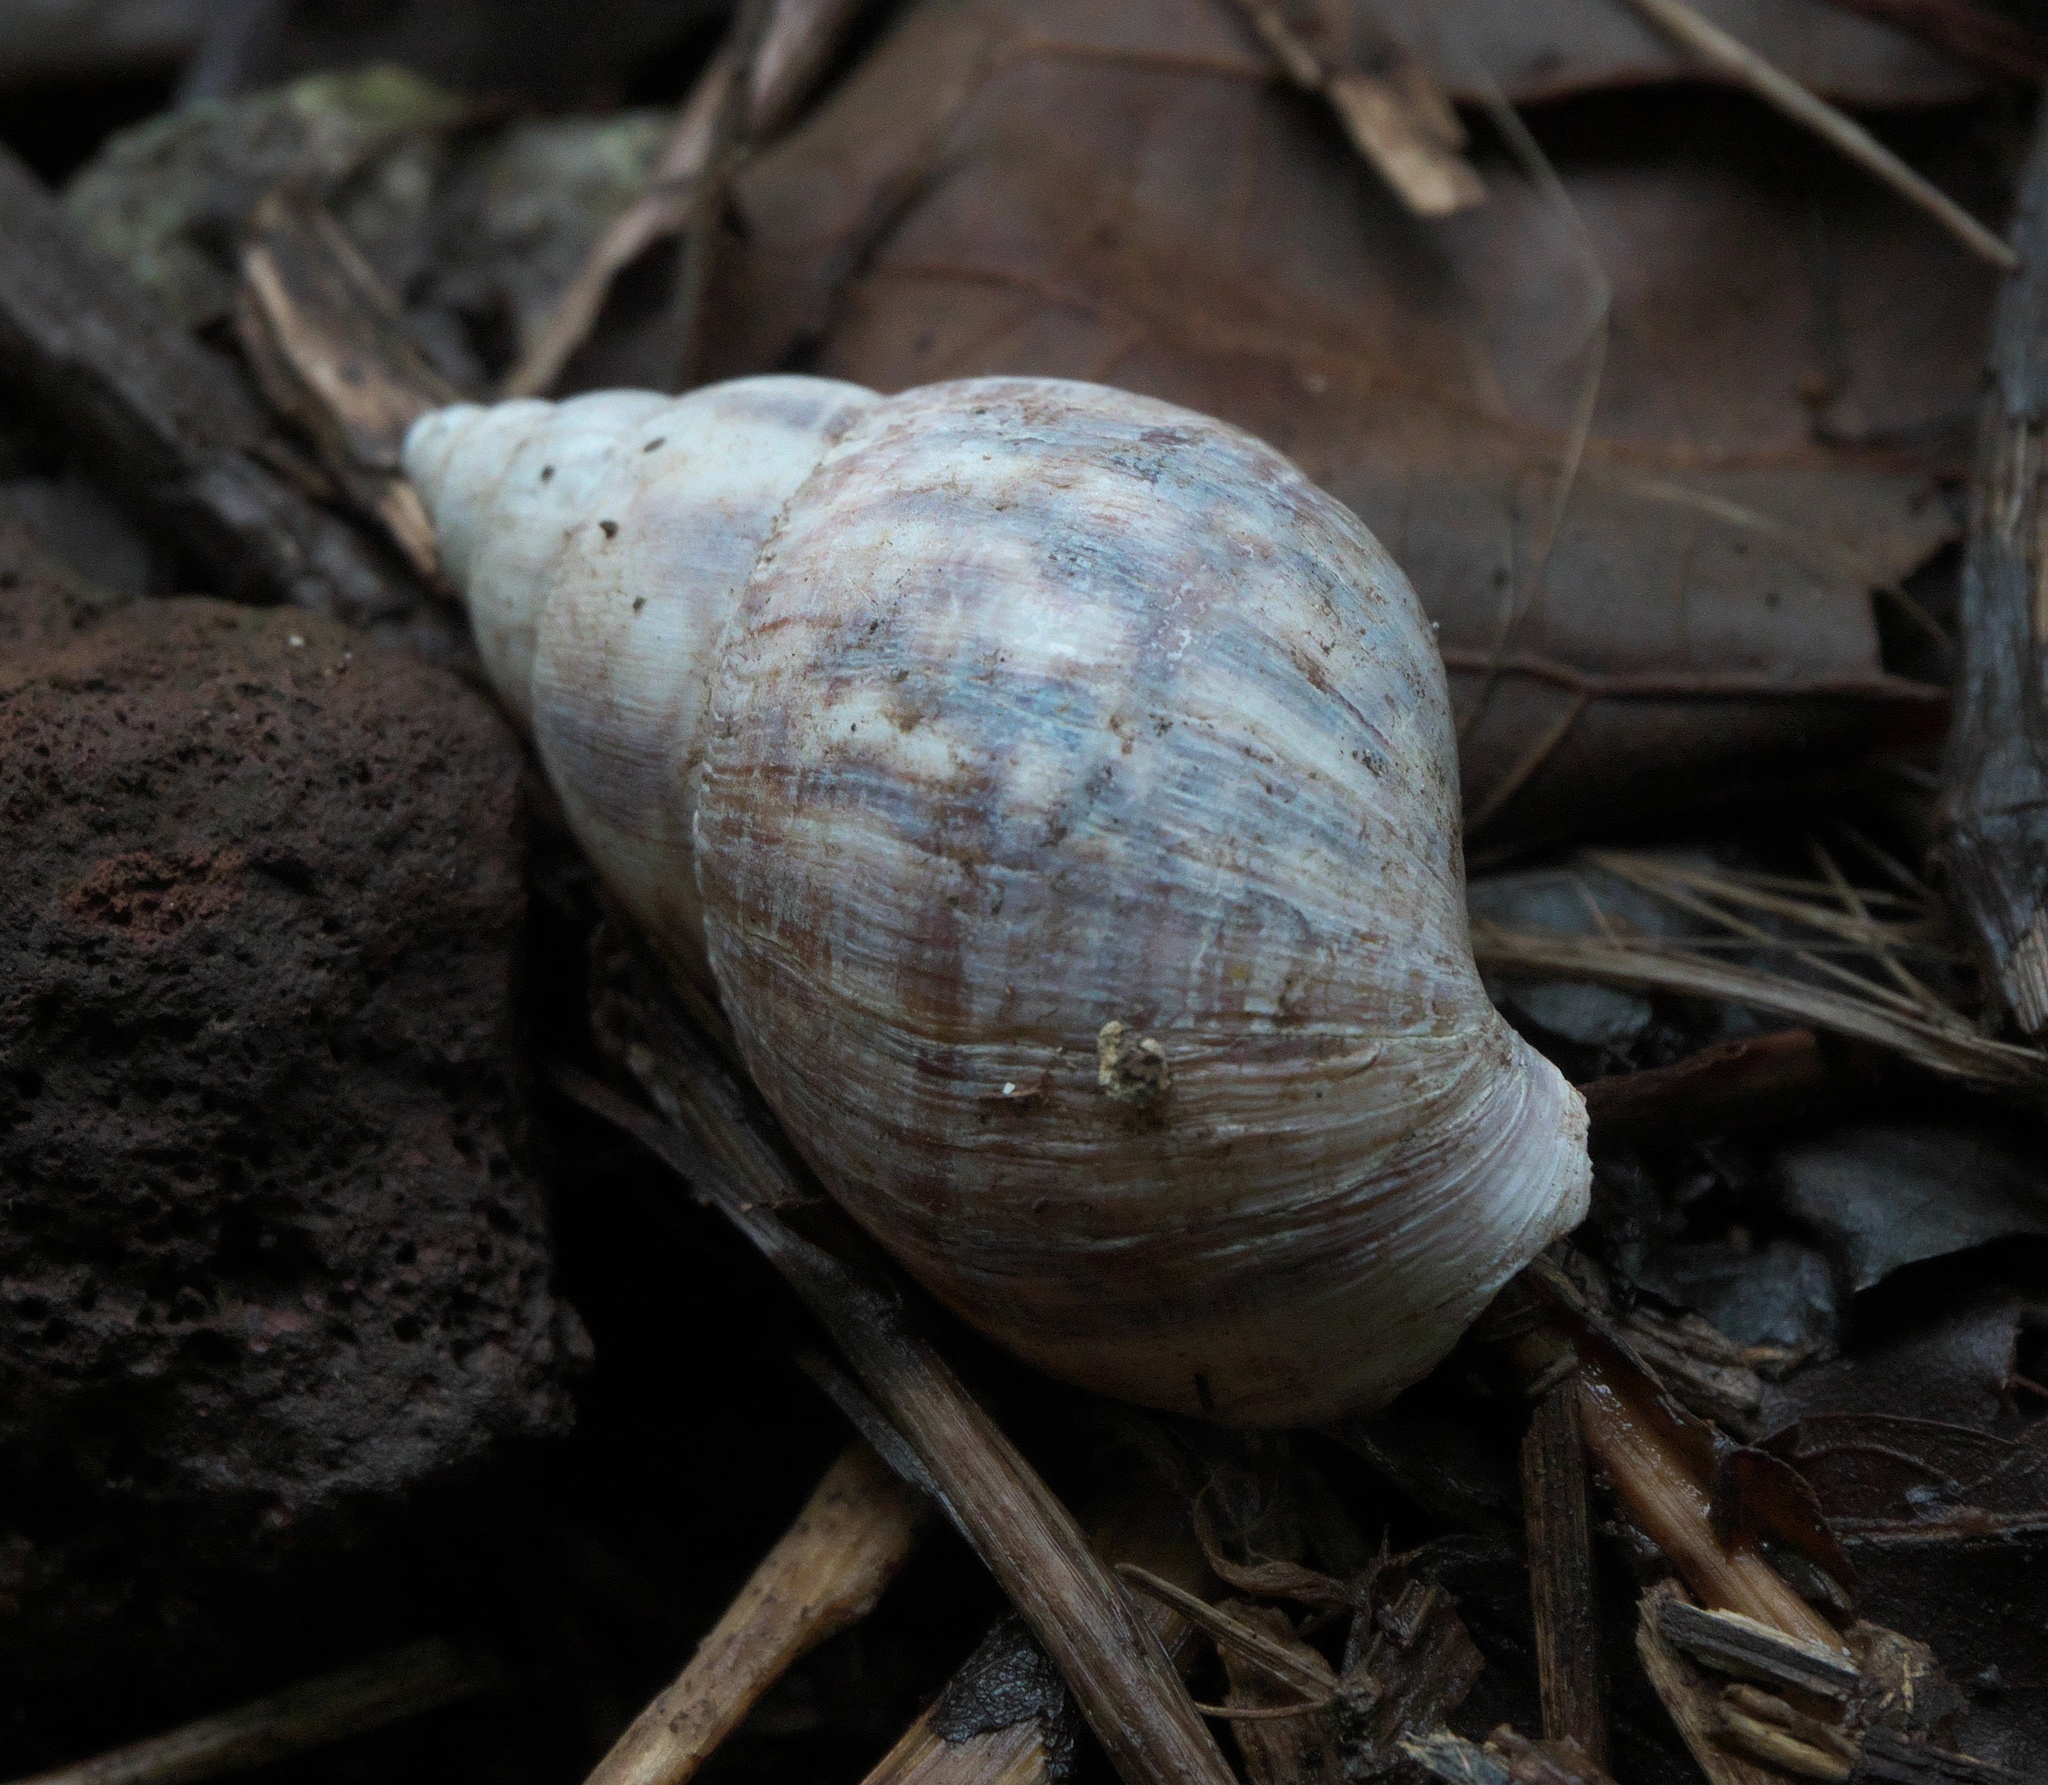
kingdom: Animalia
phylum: Mollusca
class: Gastropoda
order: Stylommatophora
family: Achatinidae
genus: Lissachatina
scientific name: Lissachatina fulica
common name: Giant african snail
